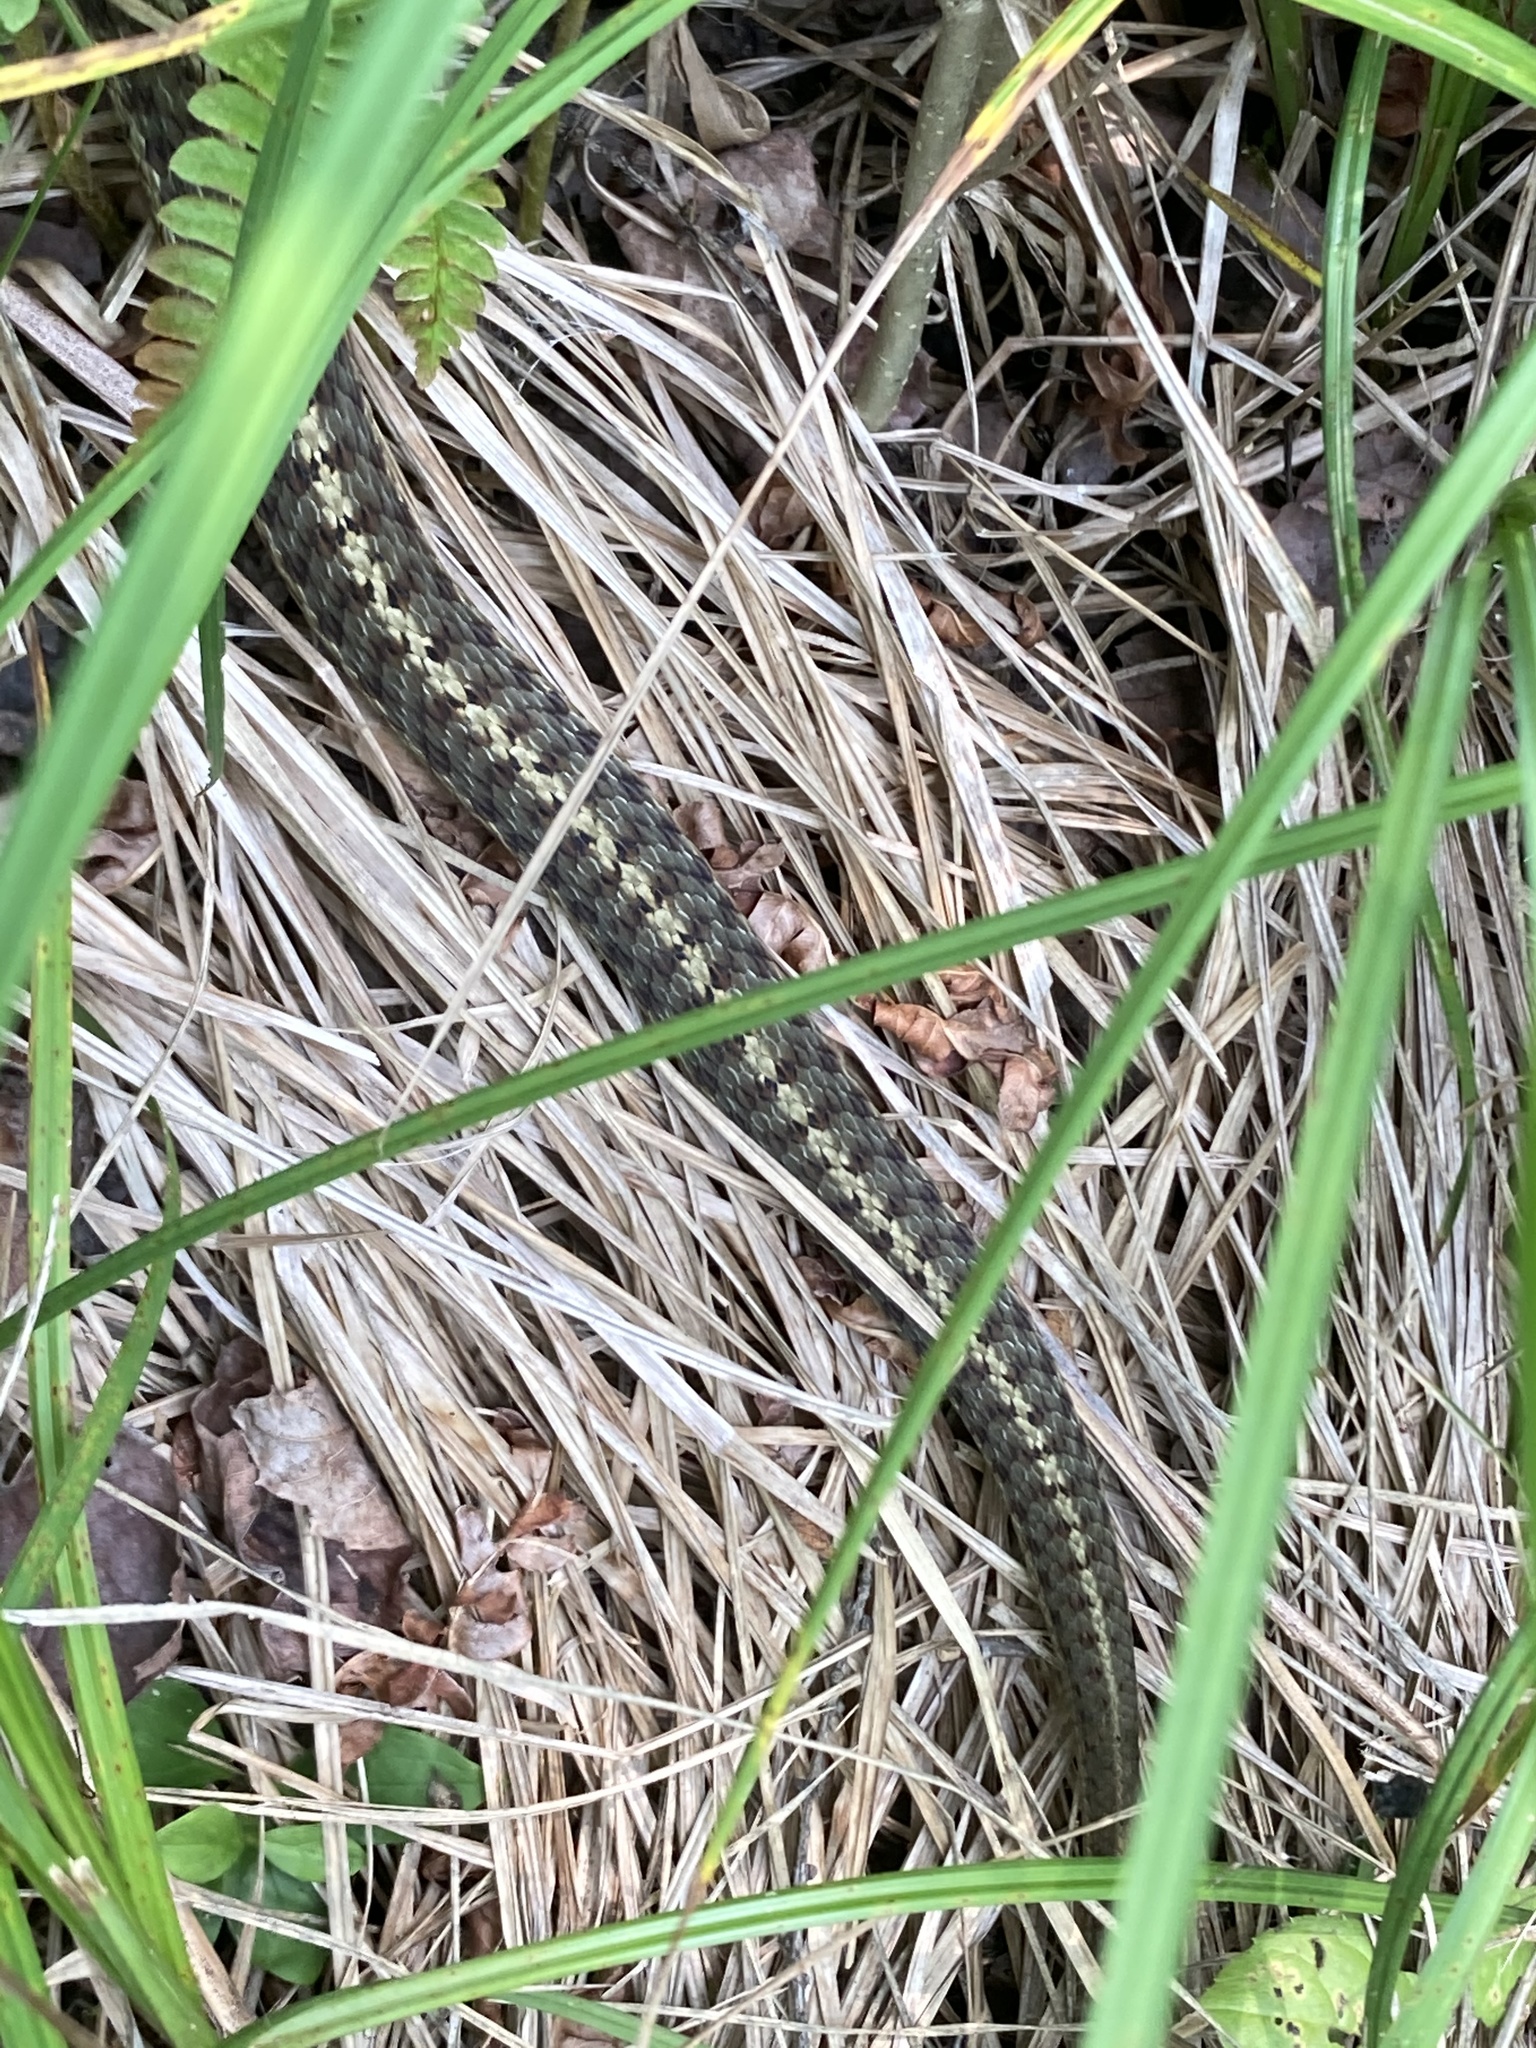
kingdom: Animalia
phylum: Chordata
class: Squamata
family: Colubridae
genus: Thamnophis
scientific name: Thamnophis sirtalis
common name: Common garter snake
